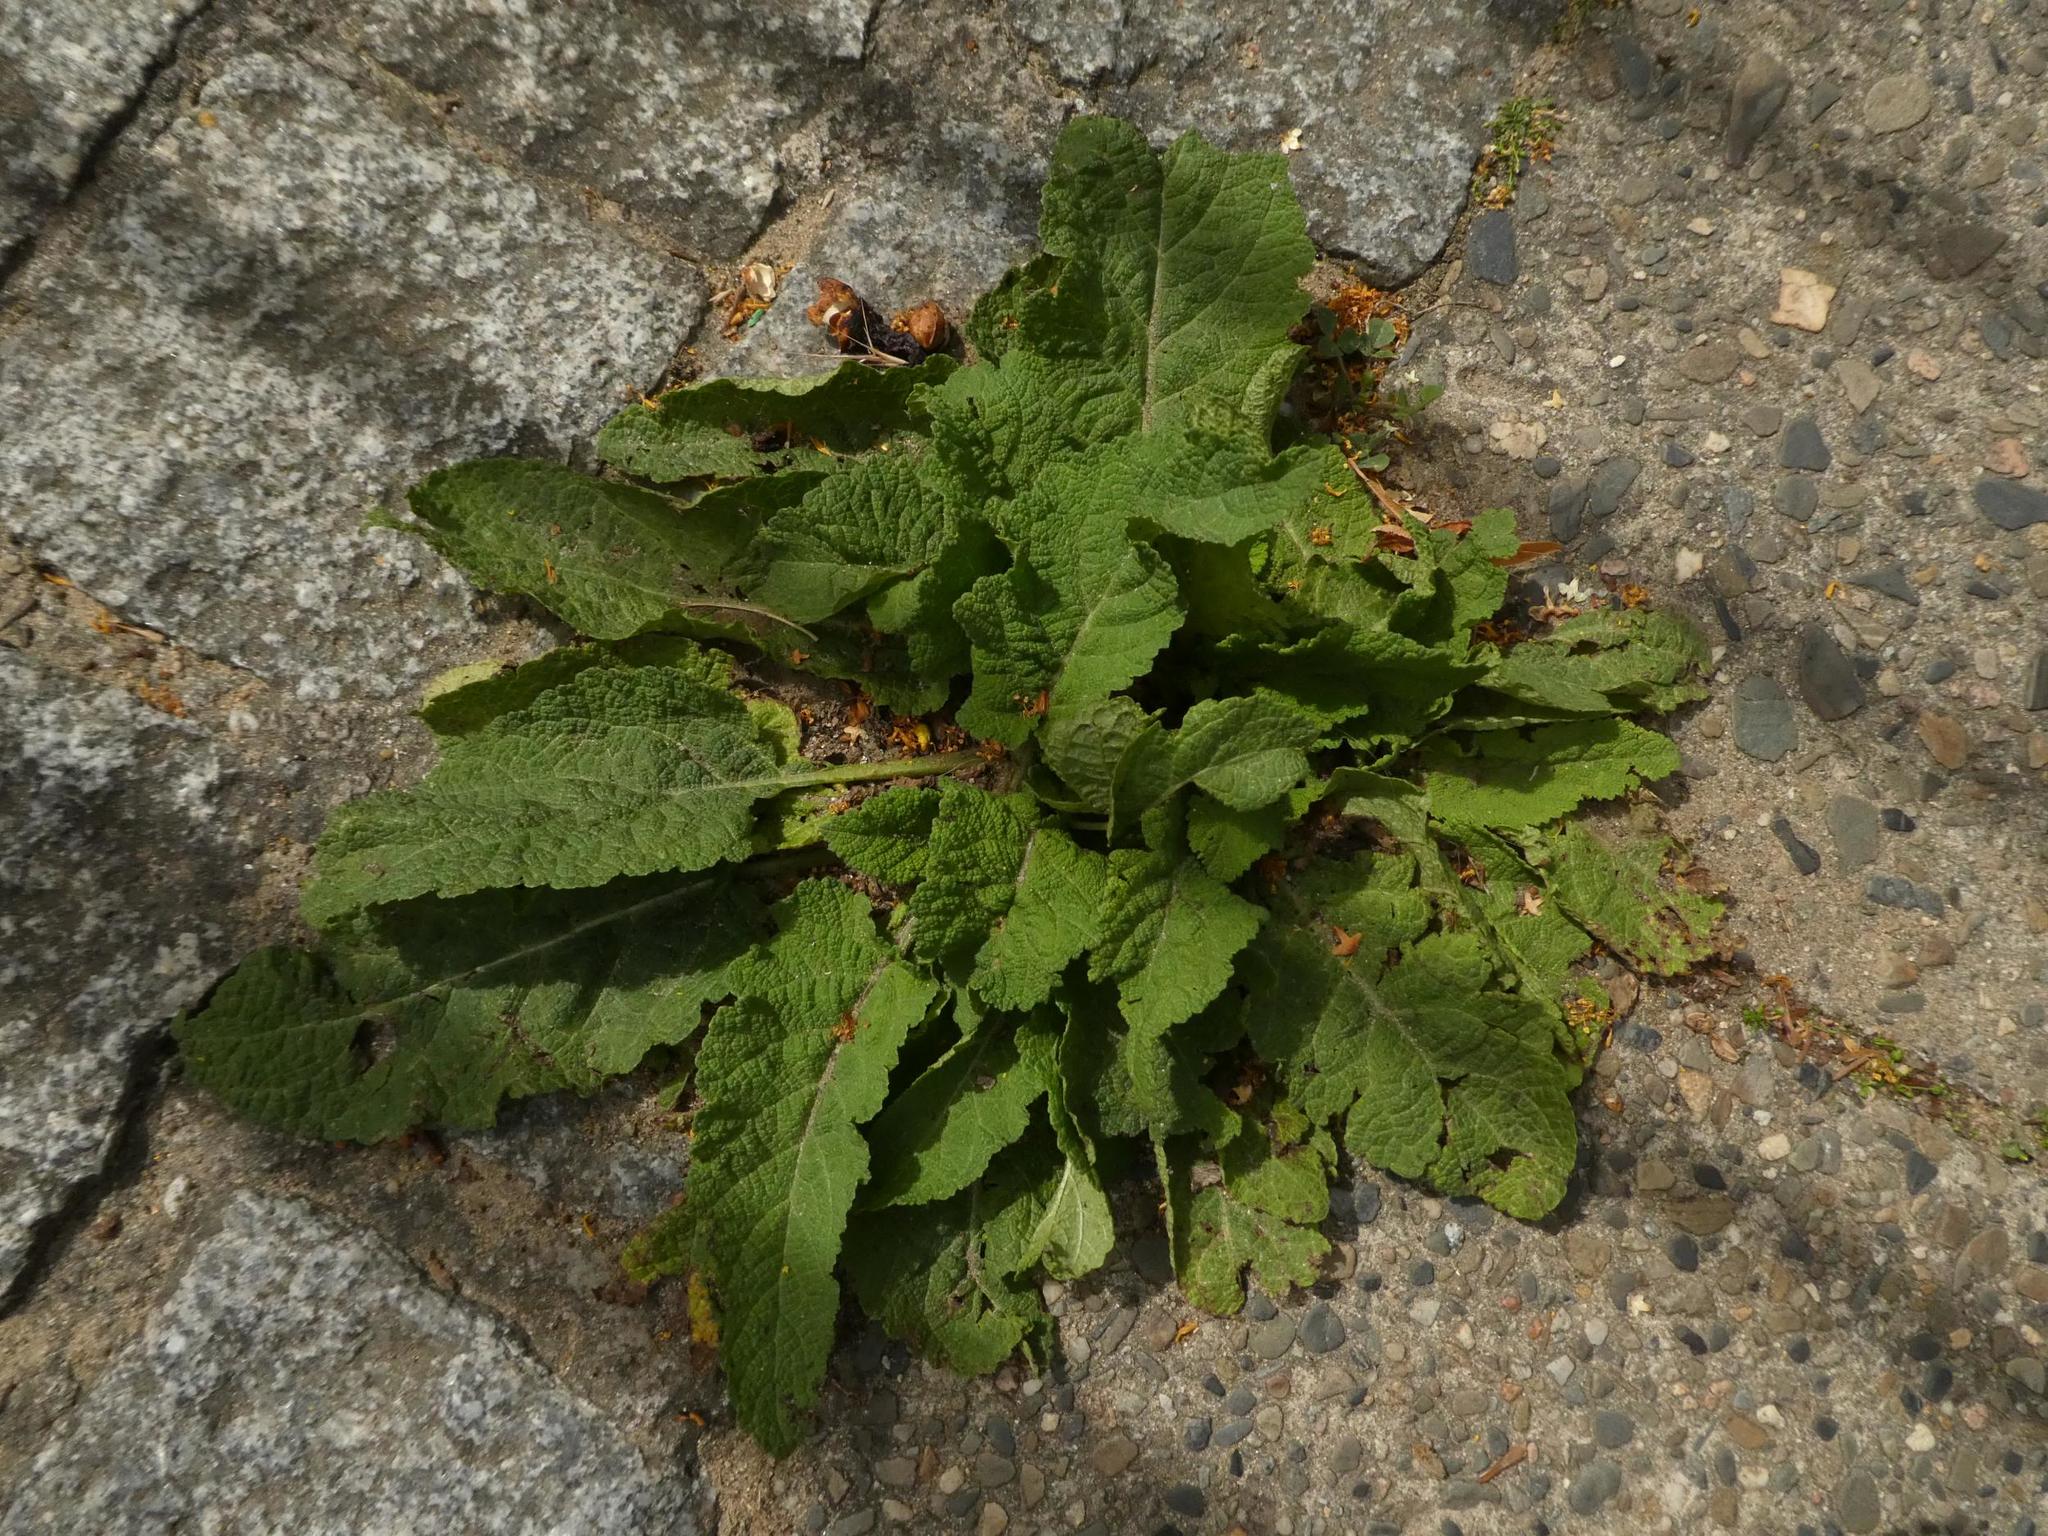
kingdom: Plantae
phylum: Tracheophyta
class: Magnoliopsida
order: Lamiales
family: Lamiaceae
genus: Salvia
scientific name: Salvia pratensis
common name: Meadow sage
